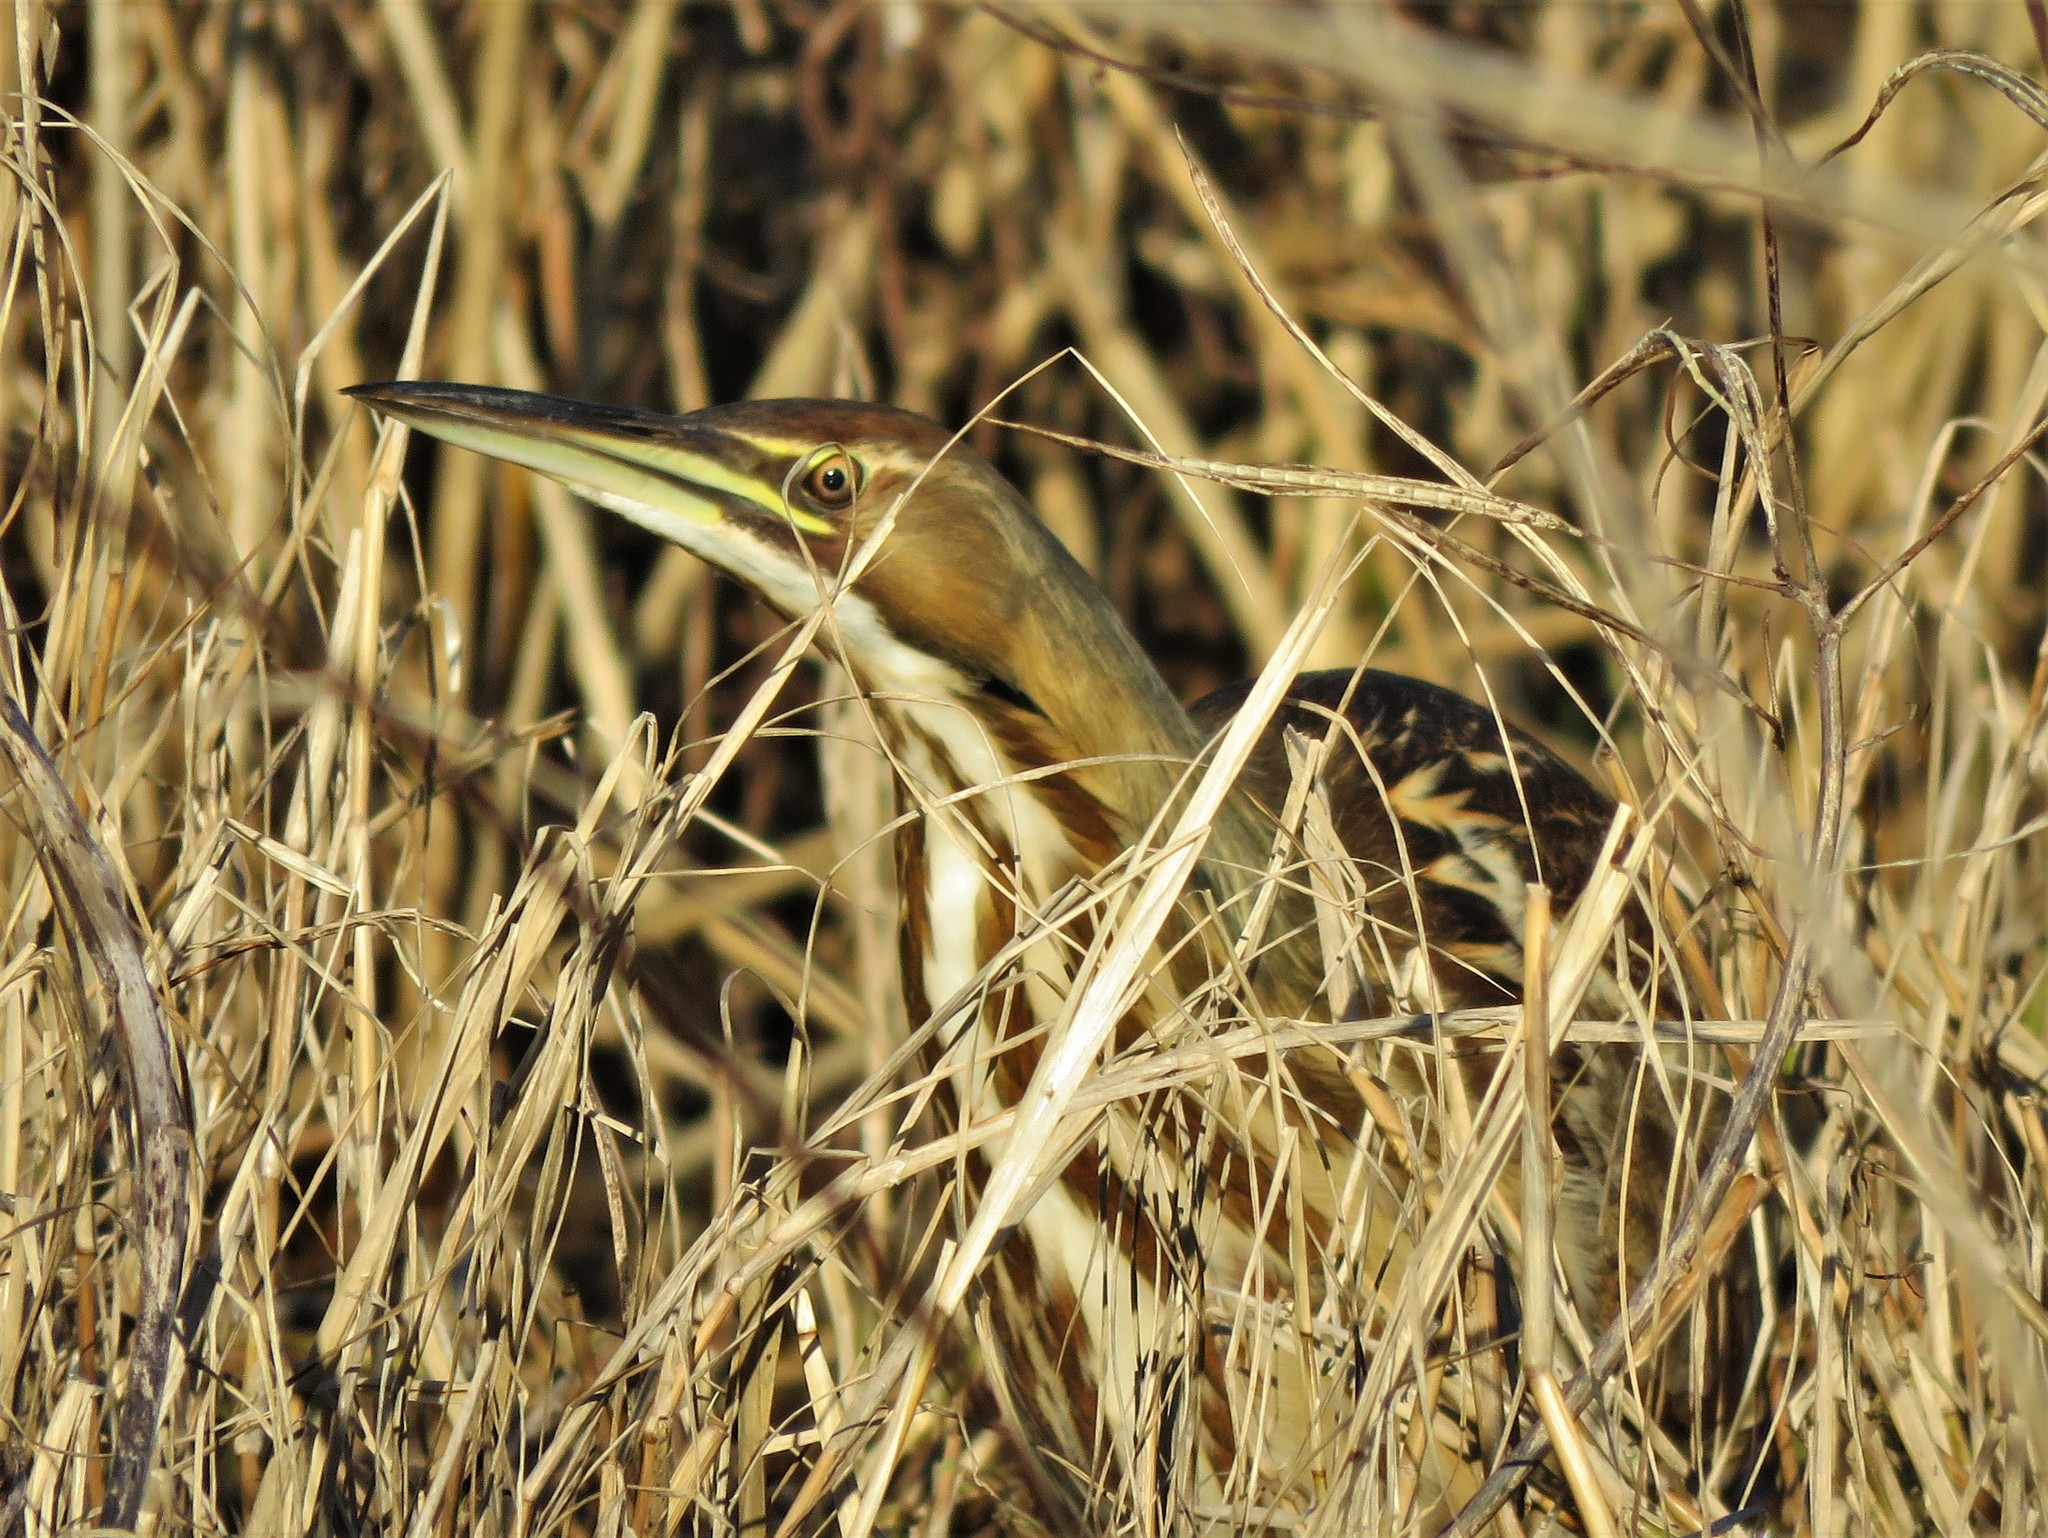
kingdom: Animalia
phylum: Chordata
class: Aves
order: Pelecaniformes
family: Ardeidae
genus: Botaurus
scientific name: Botaurus lentiginosus
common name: American bittern
